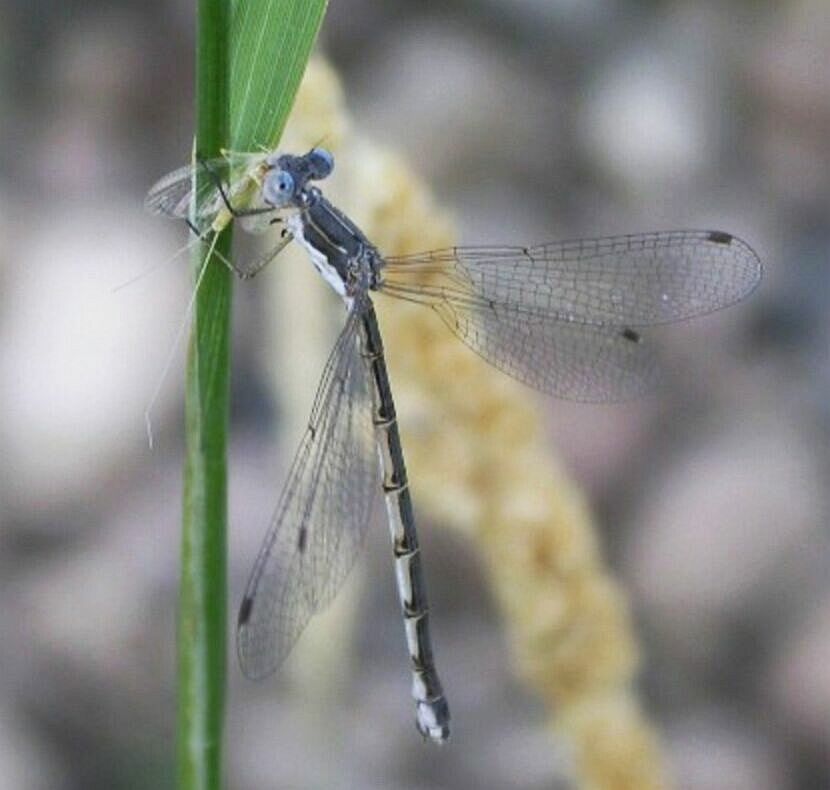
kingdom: Animalia
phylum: Arthropoda
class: Insecta
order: Odonata
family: Lestidae
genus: Lestes
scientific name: Lestes congener
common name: Spotted spreadwing
